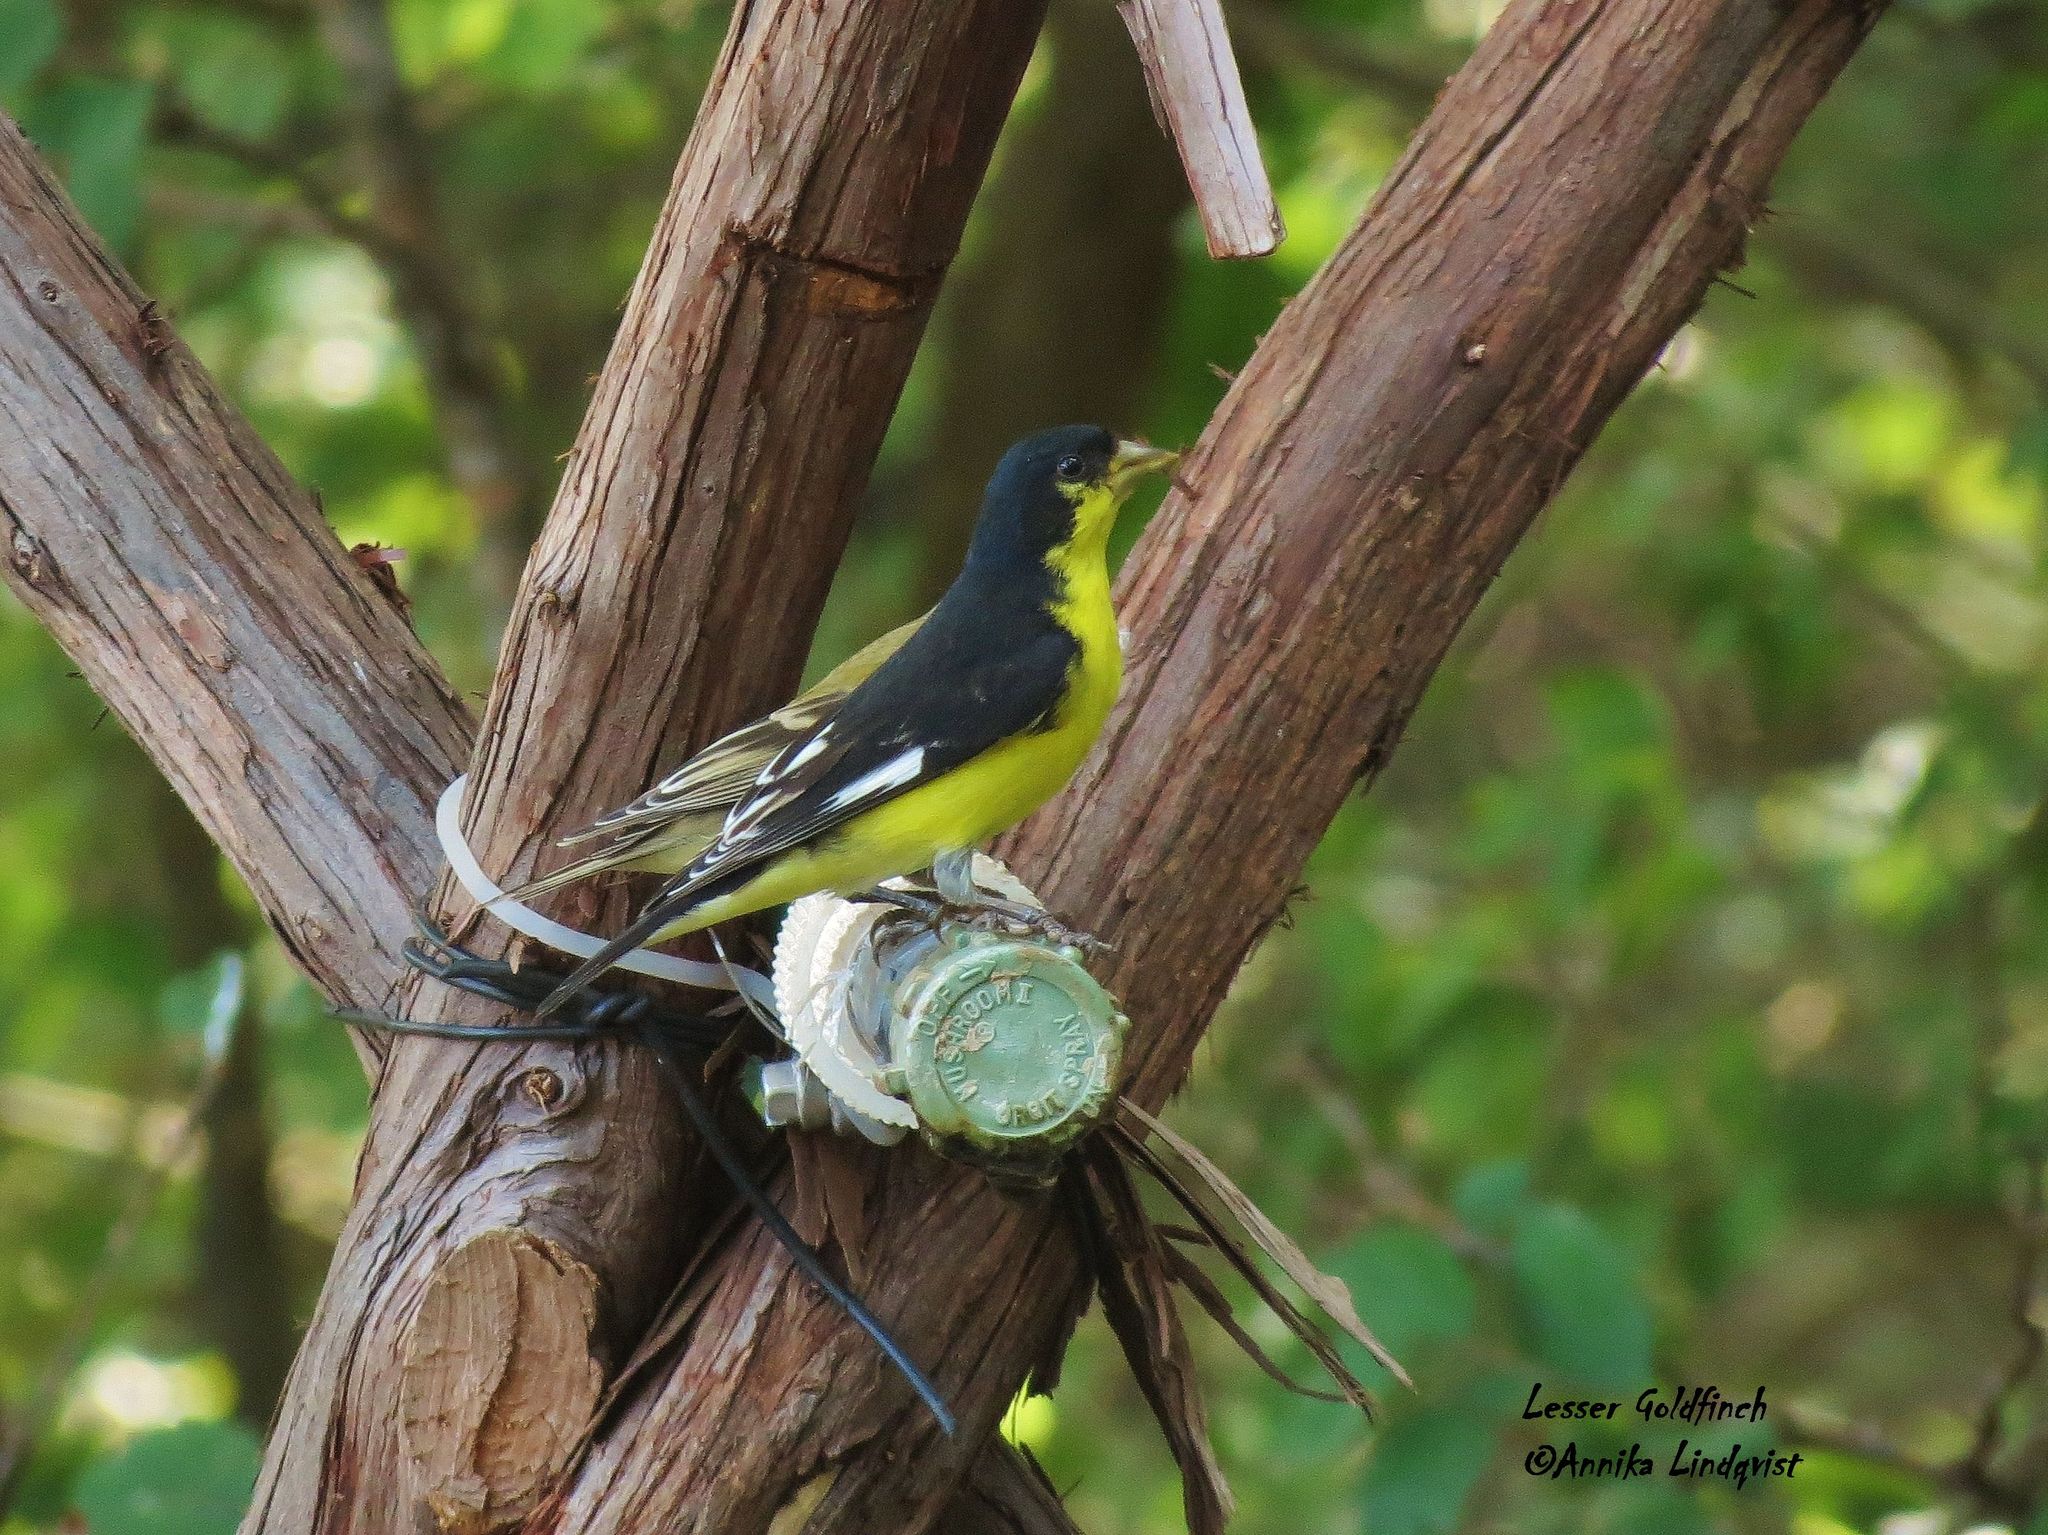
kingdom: Animalia
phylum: Chordata
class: Aves
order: Passeriformes
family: Fringillidae
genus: Spinus
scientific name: Spinus psaltria
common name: Lesser goldfinch
